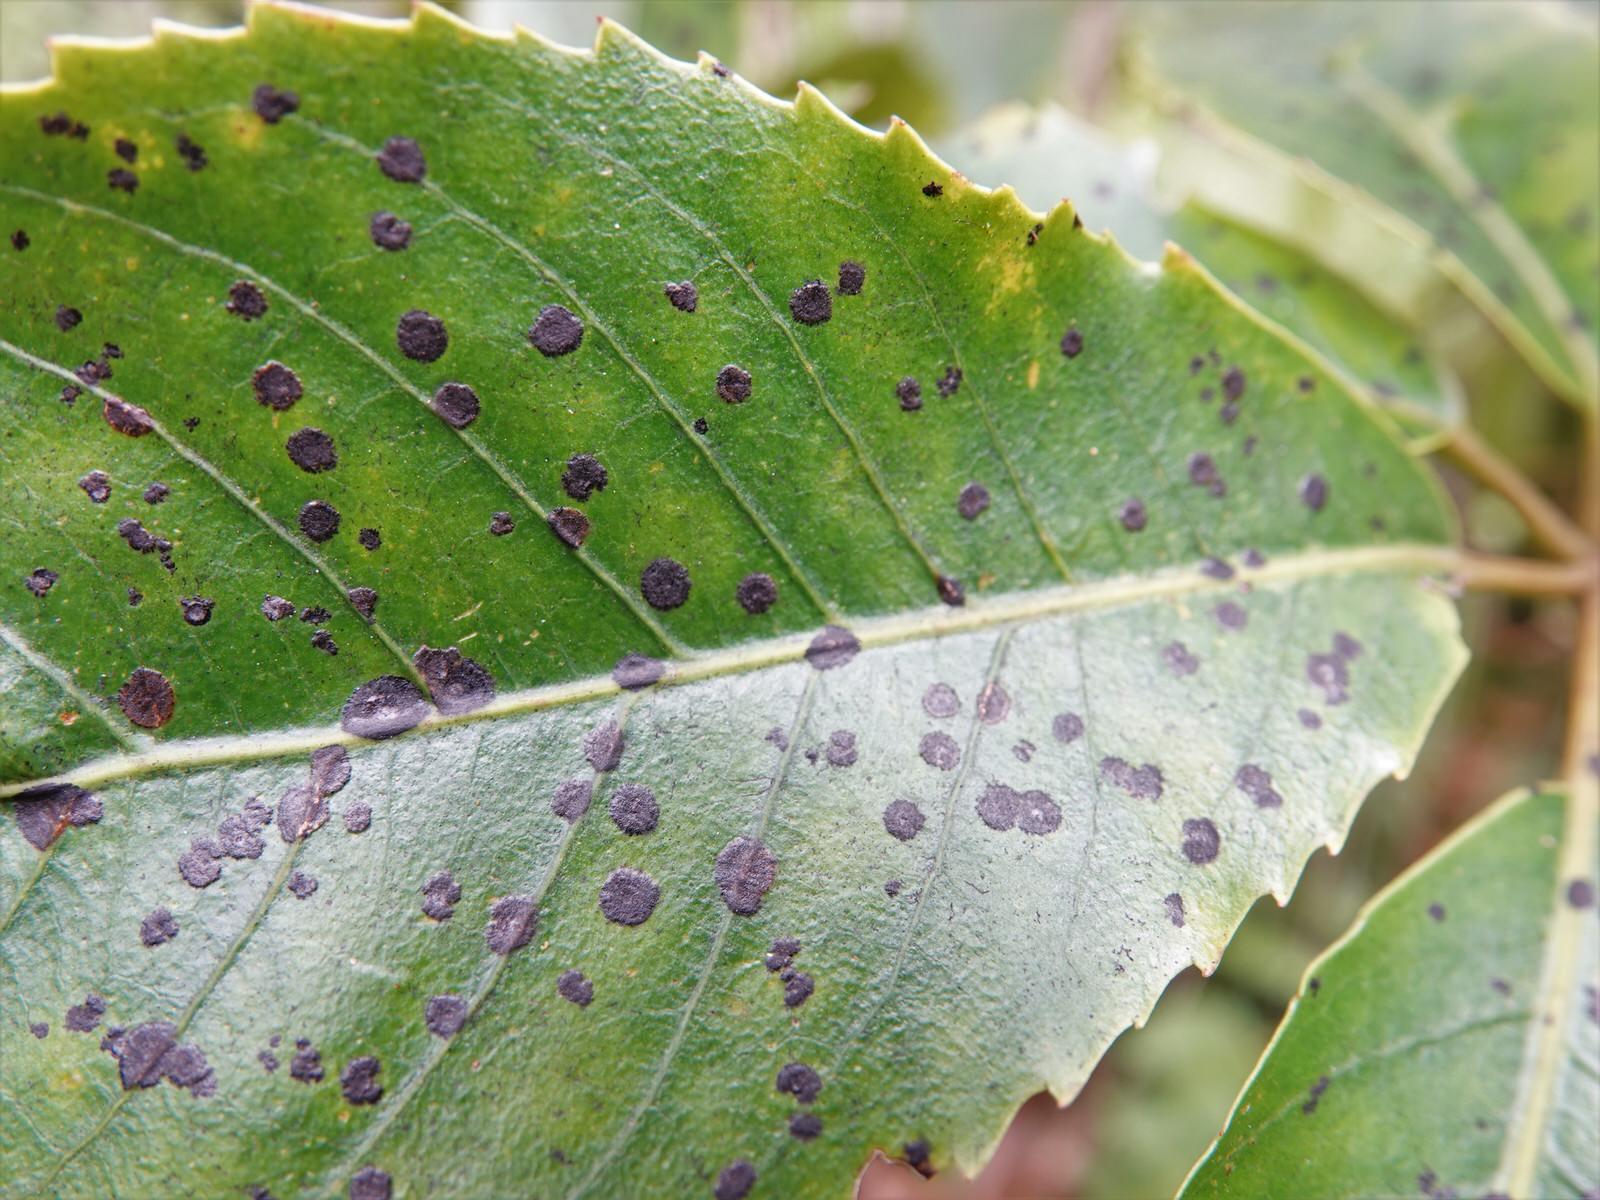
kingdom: Fungi
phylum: Ascomycota
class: Dothideomycetes
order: Asterinales
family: Asterinaceae
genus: Placosoma
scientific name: Placosoma nothopanacis
